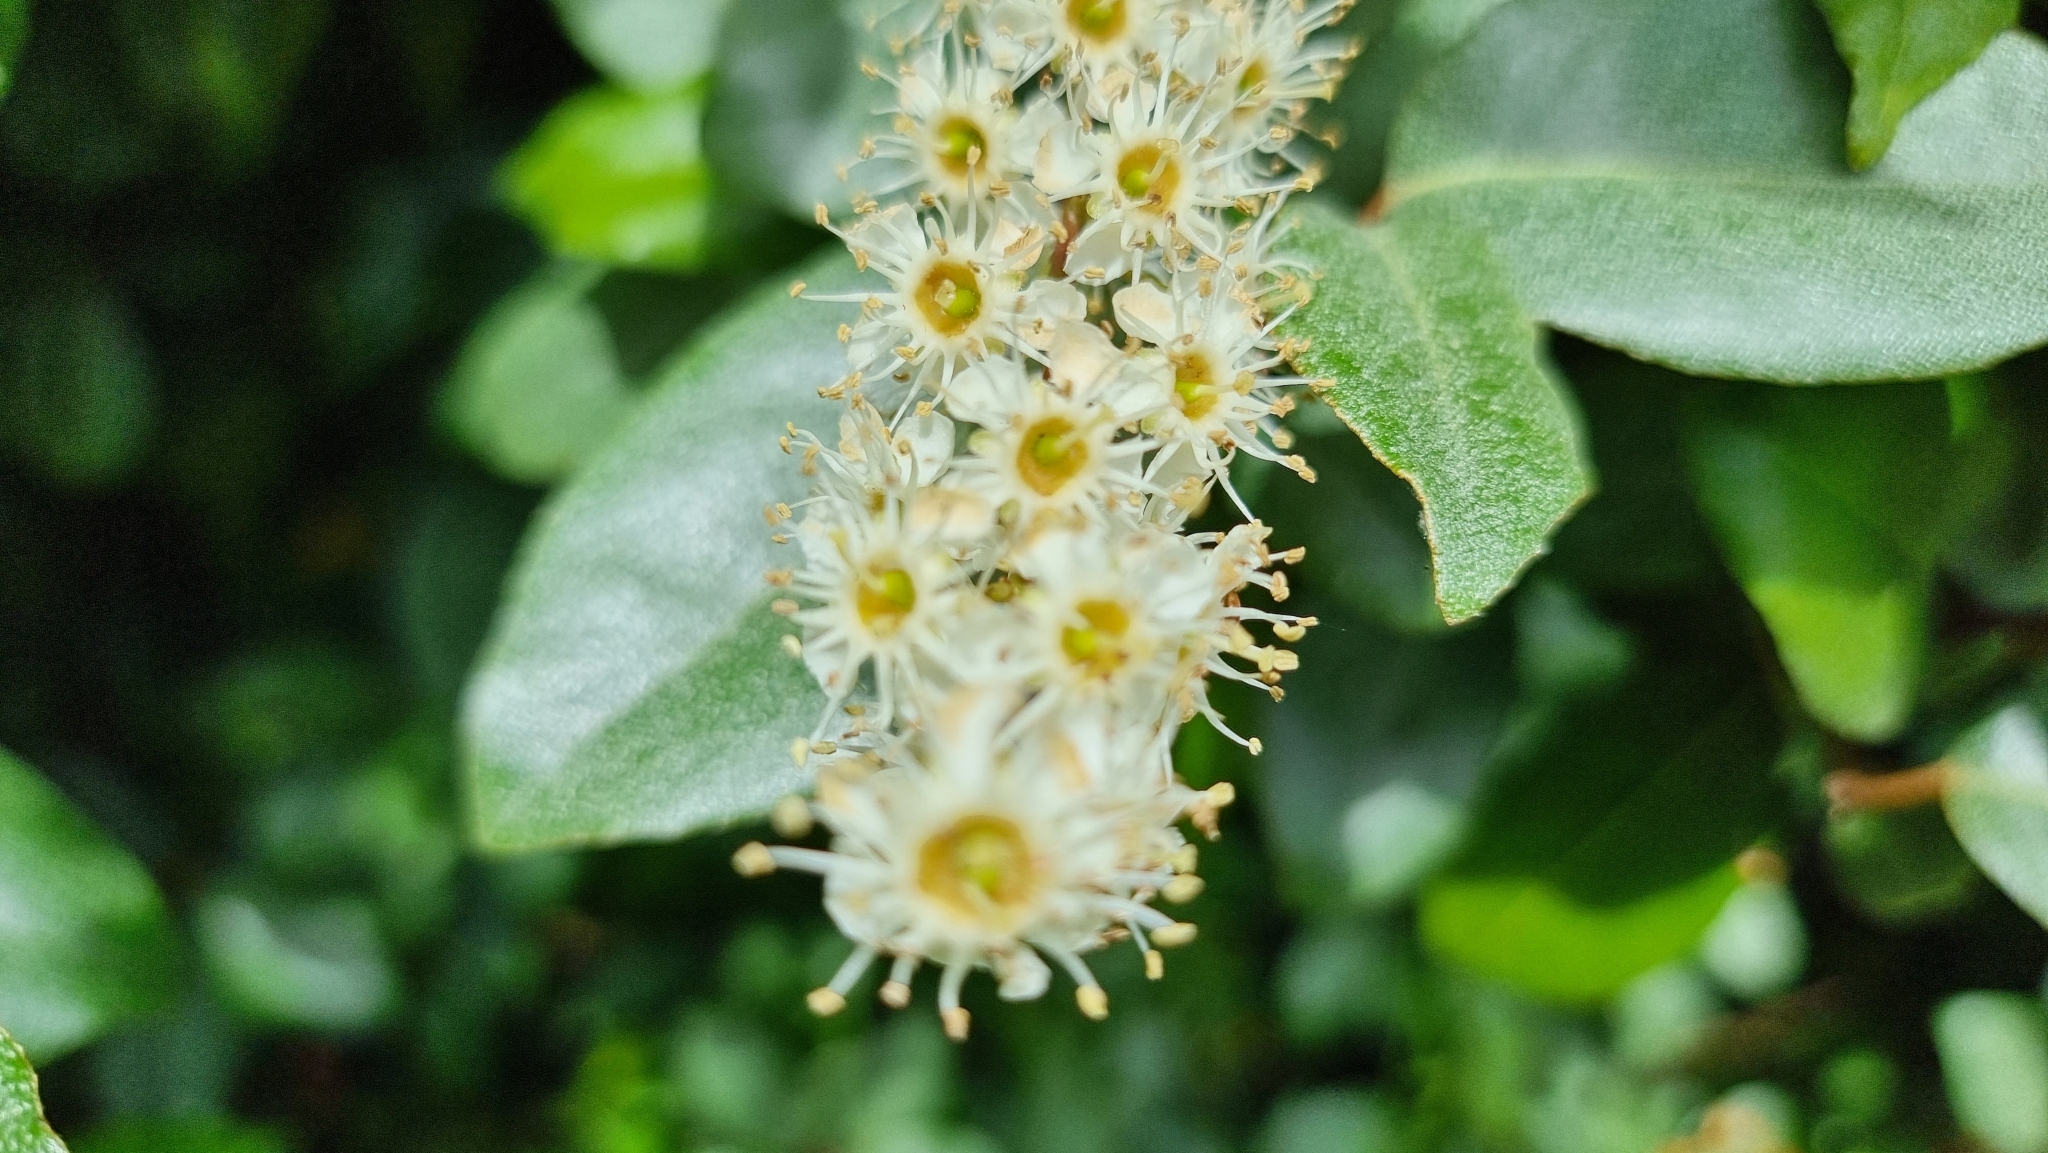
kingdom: Plantae
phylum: Tracheophyta
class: Magnoliopsida
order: Rosales
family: Rosaceae
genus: Prunus
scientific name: Prunus laurocerasus
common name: Cherry laurel
